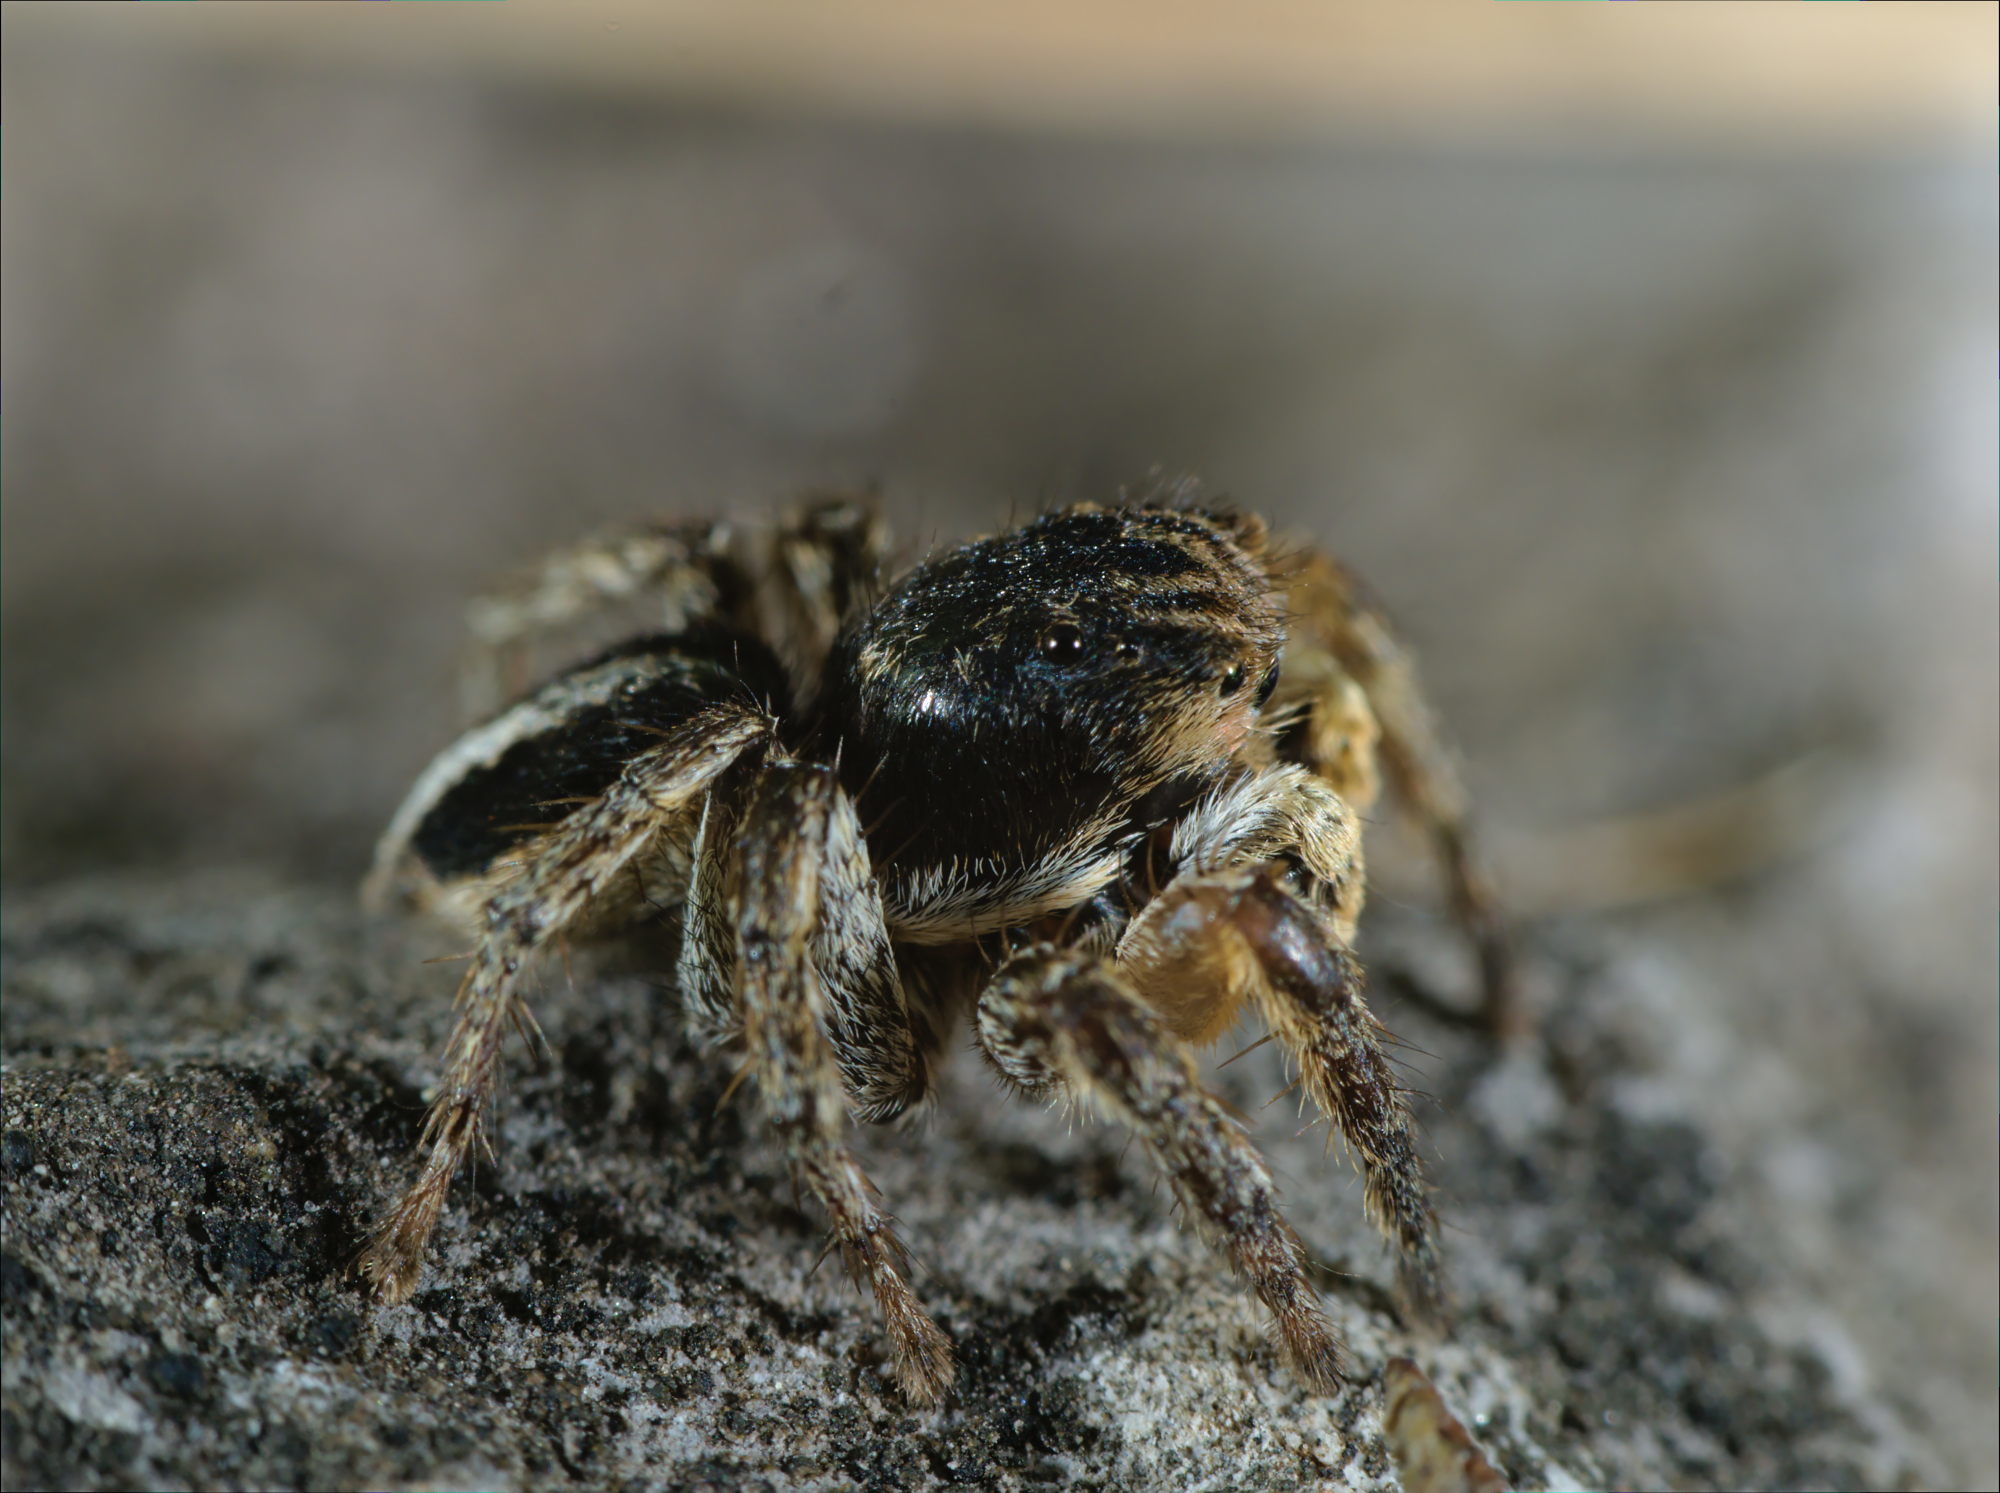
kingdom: Animalia
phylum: Arthropoda
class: Arachnida
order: Araneae
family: Salticidae
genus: Aelurillus
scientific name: Aelurillus v-insignitus
